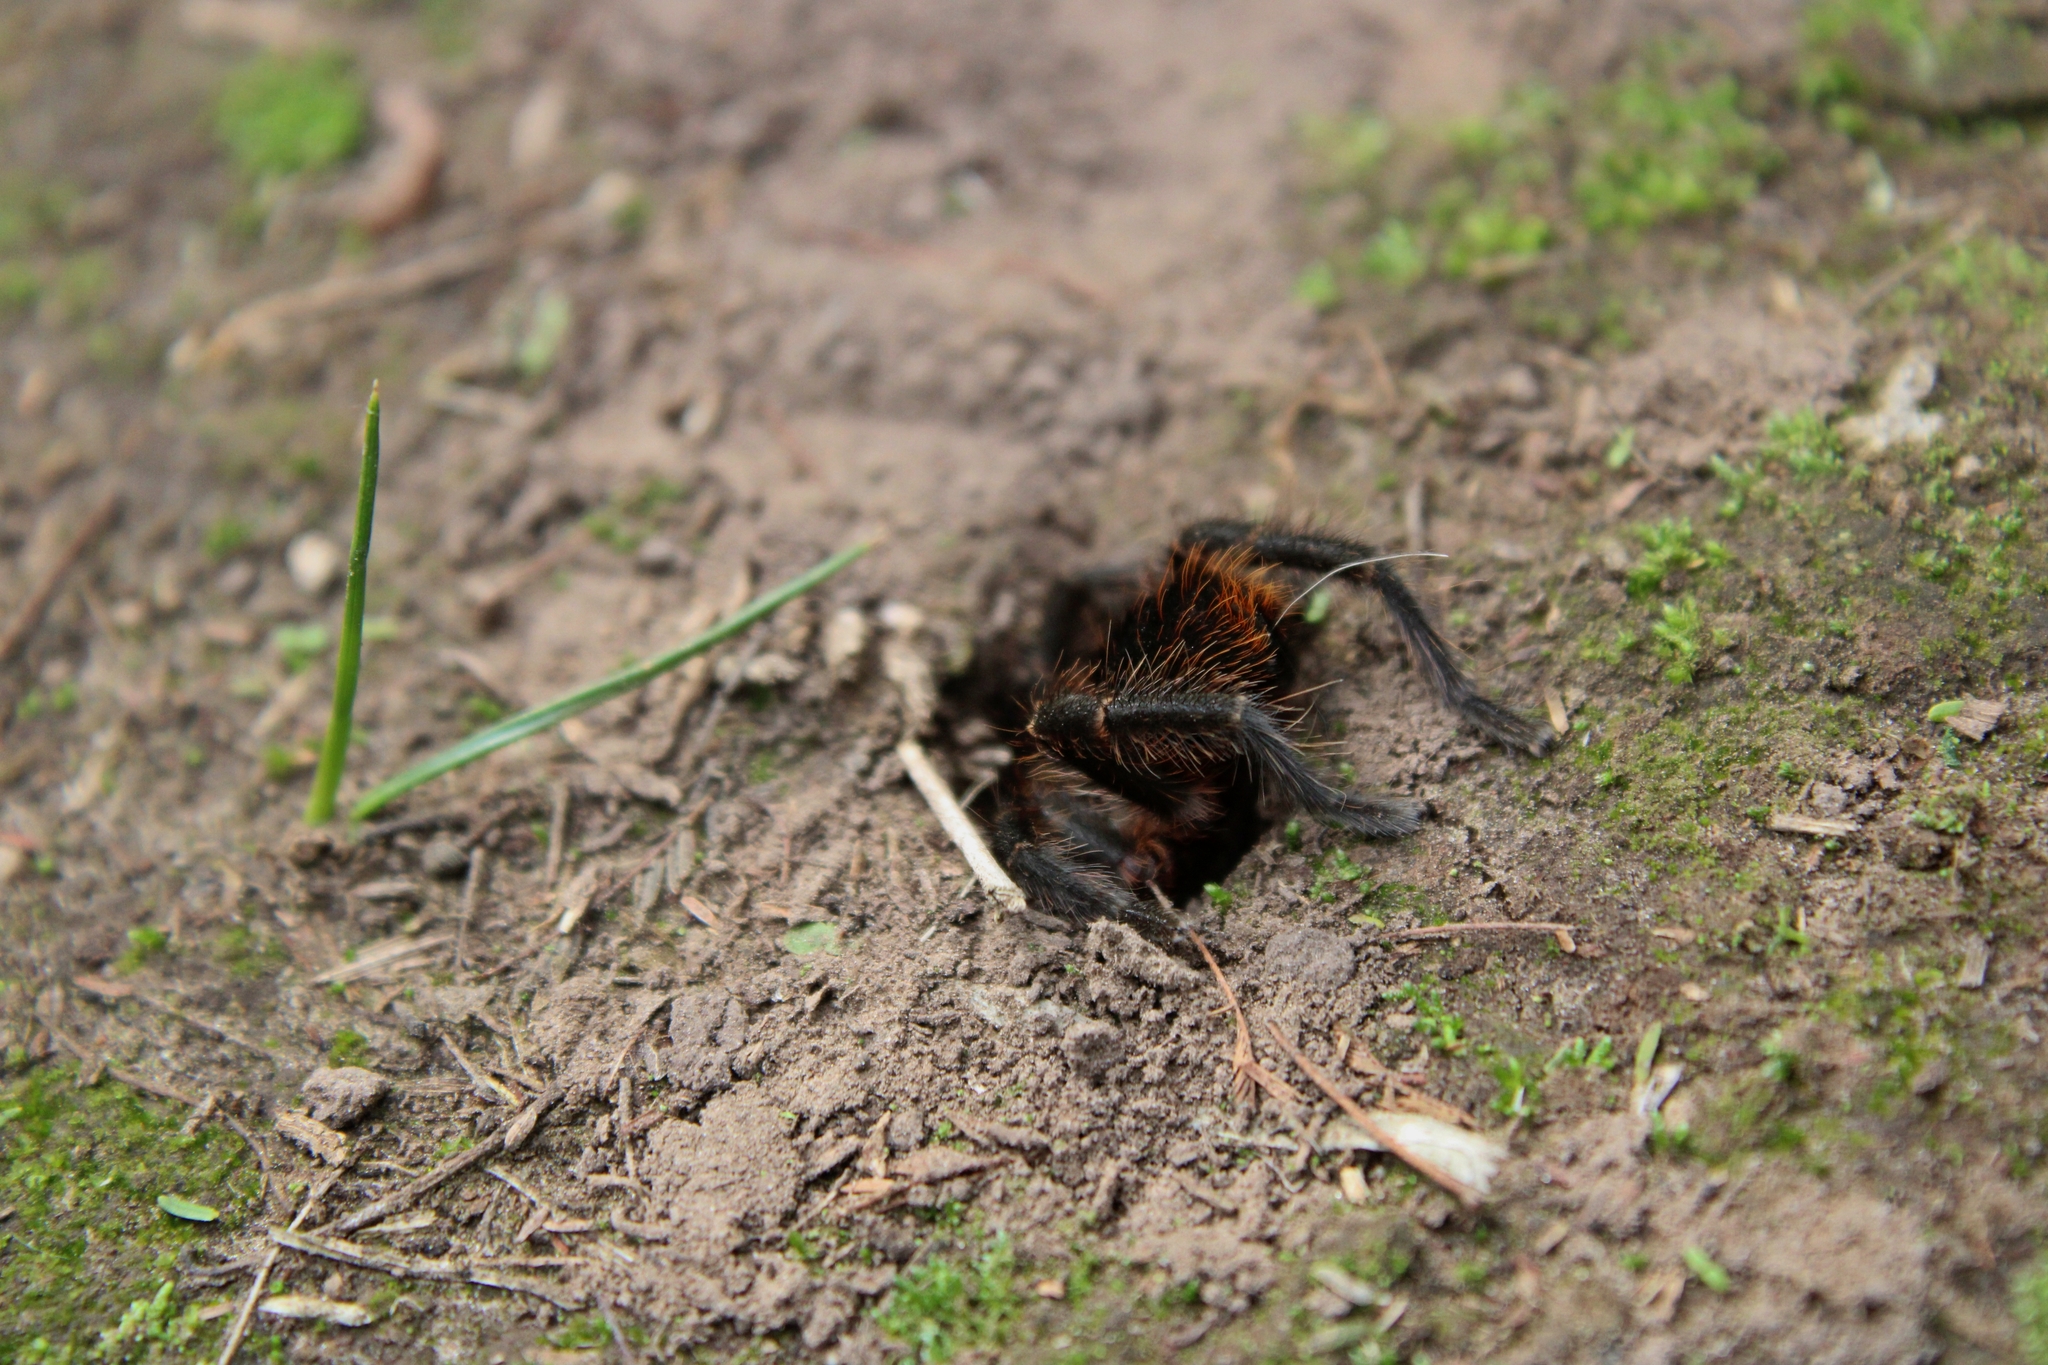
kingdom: Animalia
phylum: Arthropoda
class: Arachnida
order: Araneae
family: Theraphosidae
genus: Homoeomma
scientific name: Homoeomma uruguayense
